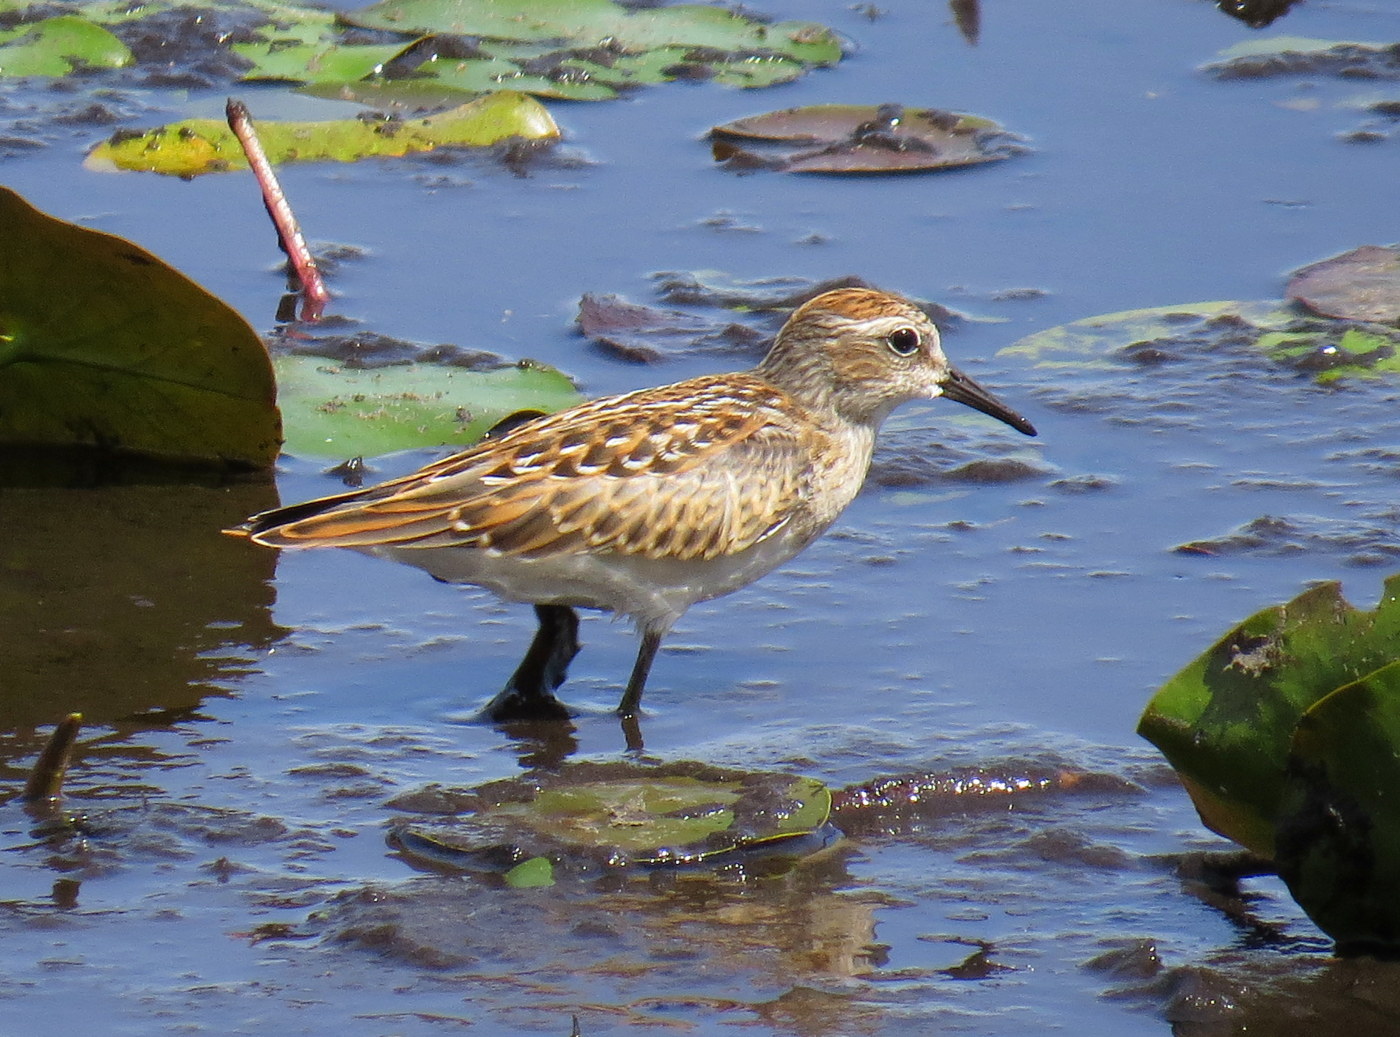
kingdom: Animalia
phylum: Chordata
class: Aves
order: Charadriiformes
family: Scolopacidae
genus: Calidris
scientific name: Calidris minutilla
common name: Least sandpiper
